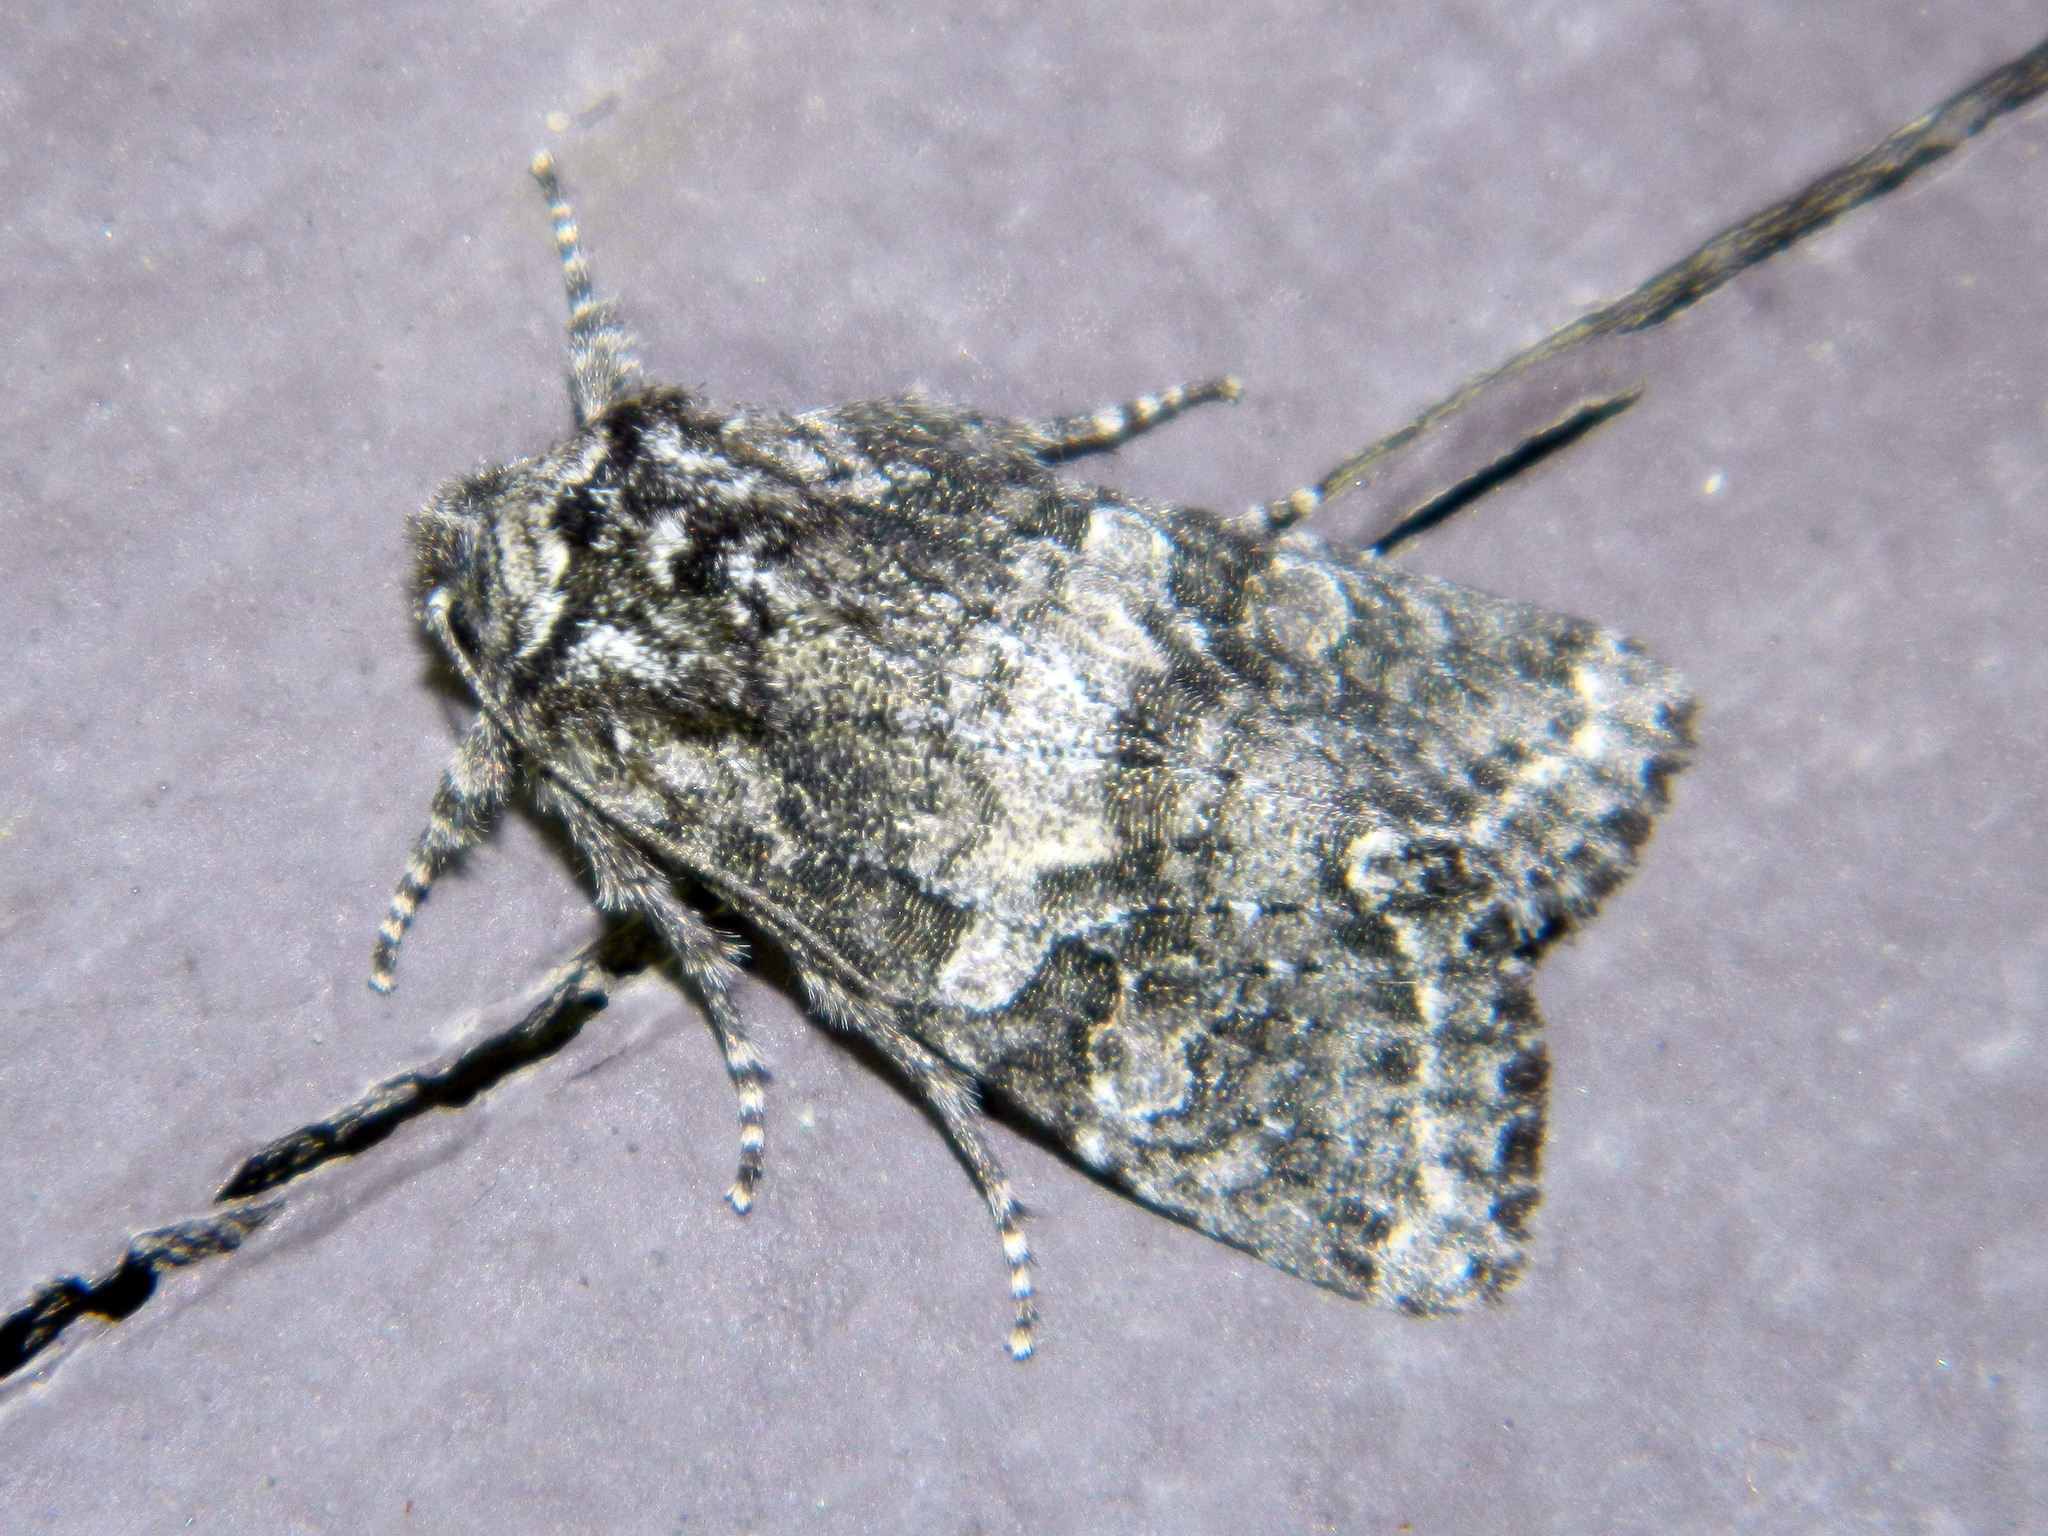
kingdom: Animalia
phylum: Arthropoda
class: Insecta
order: Lepidoptera
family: Noctuidae
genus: Egira
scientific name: Egira dolosa
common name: Lined black aspen cat.
